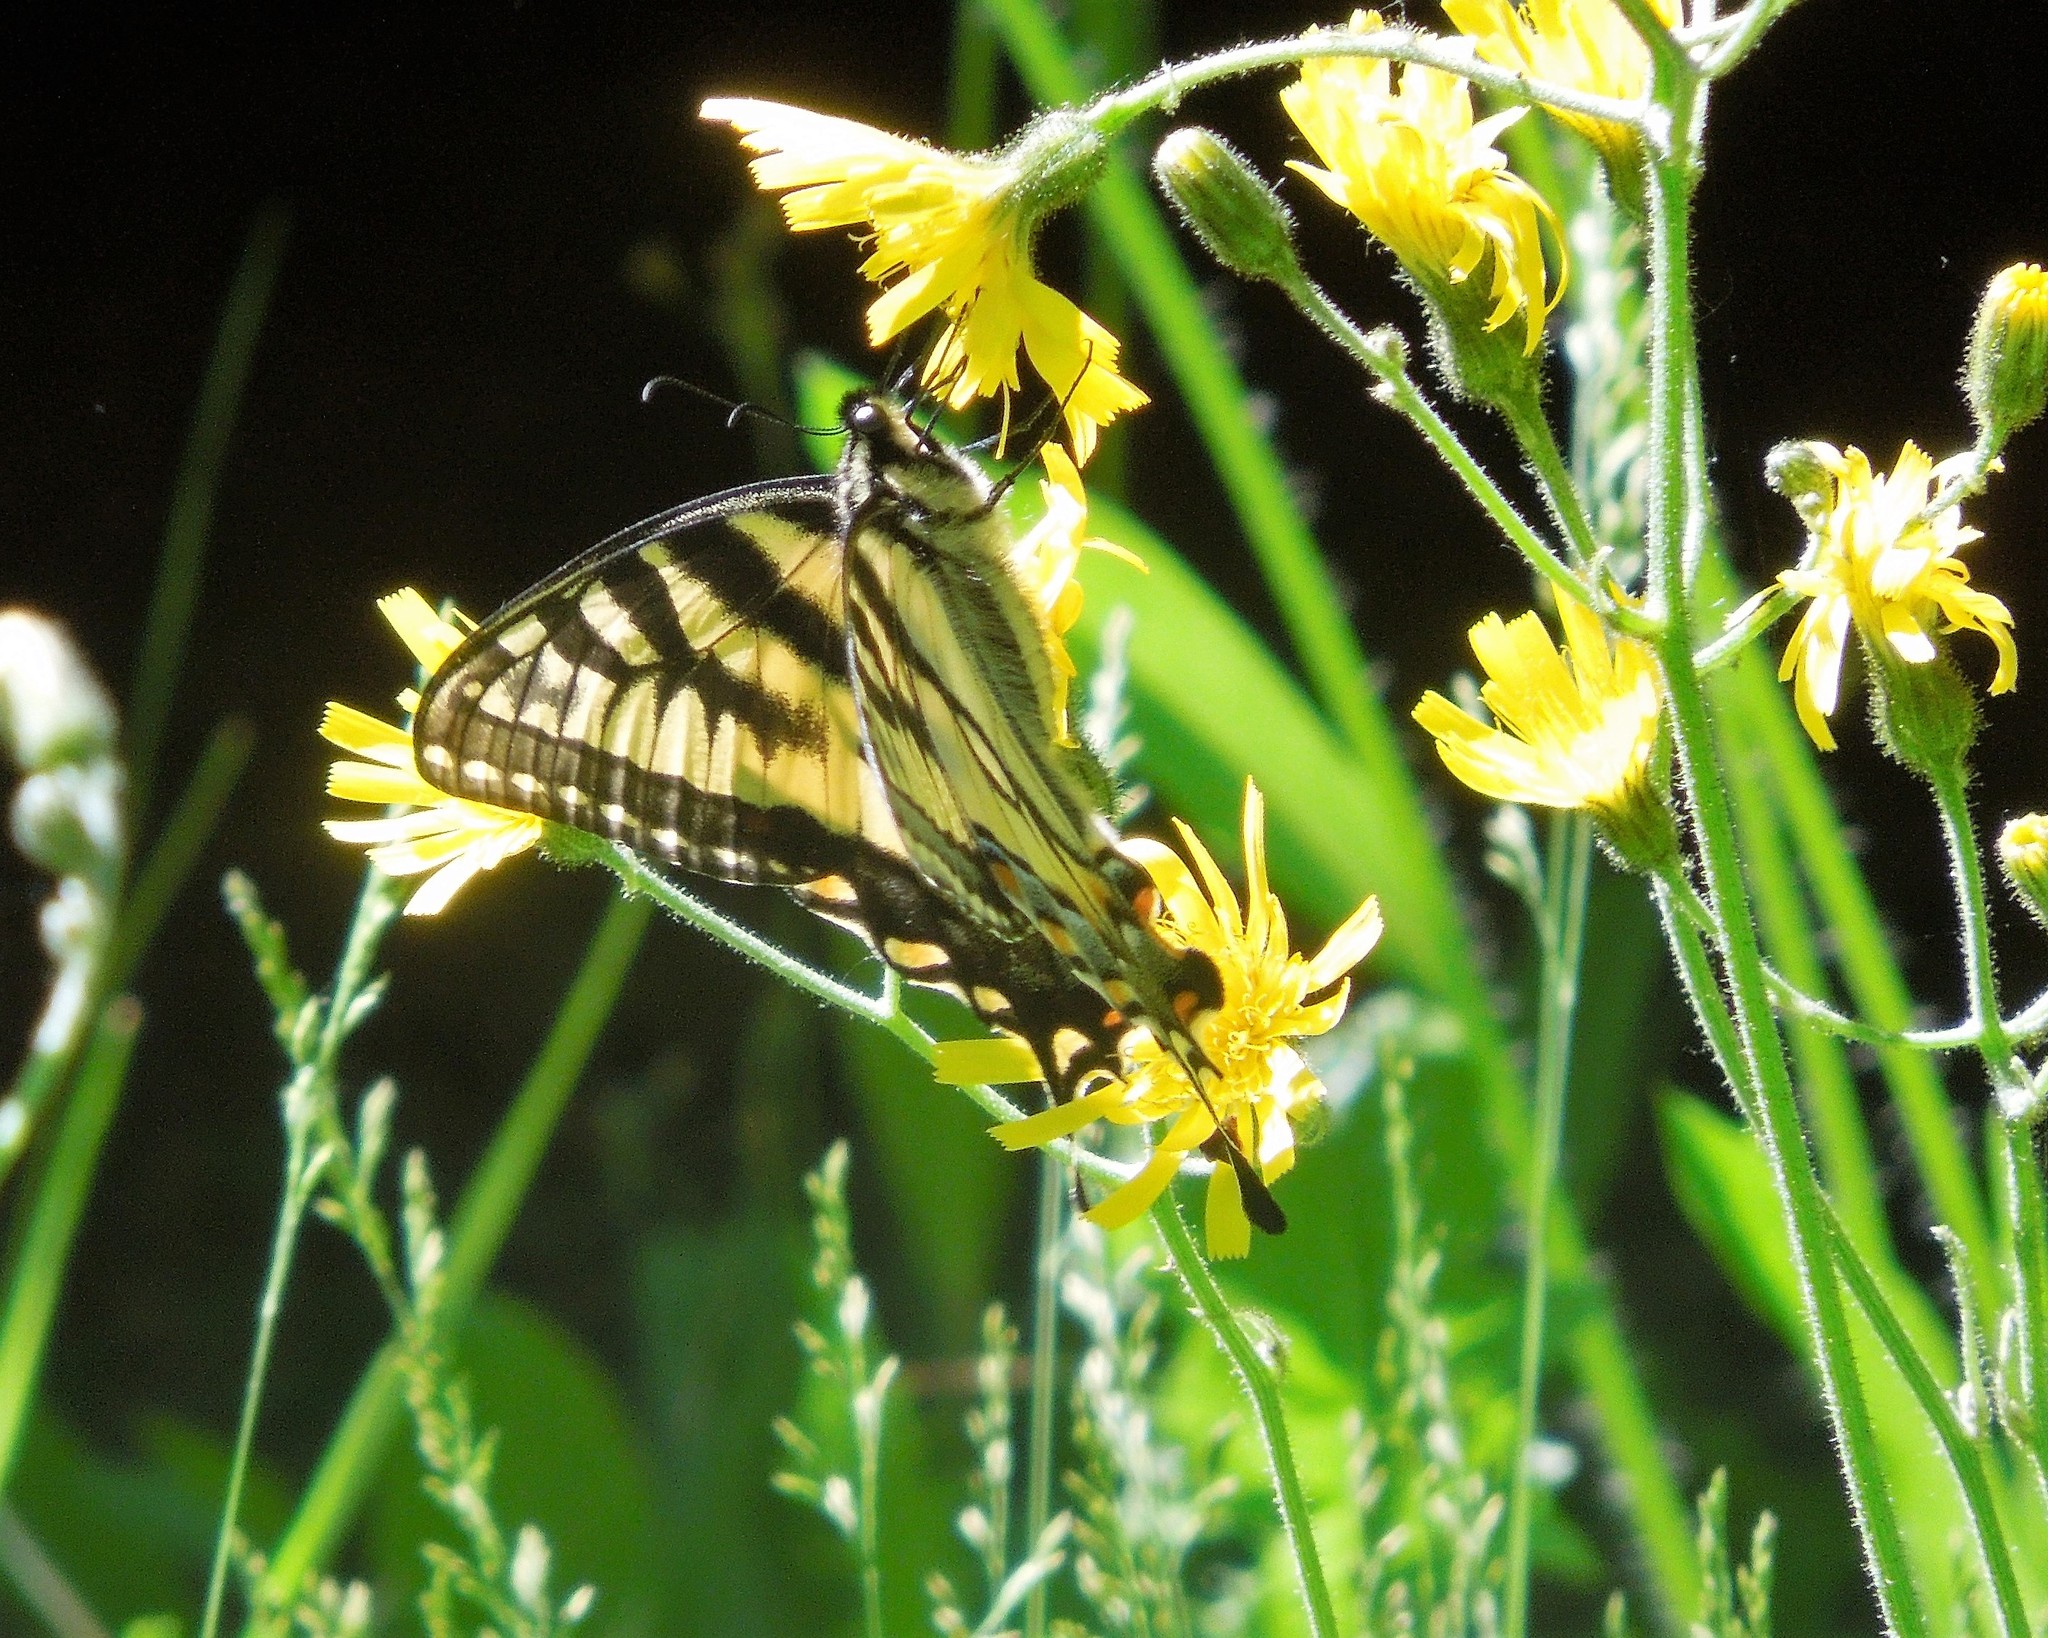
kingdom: Animalia
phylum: Arthropoda
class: Insecta
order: Lepidoptera
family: Papilionidae
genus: Papilio
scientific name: Papilio canadensis
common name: Canadian tiger swallowtail
